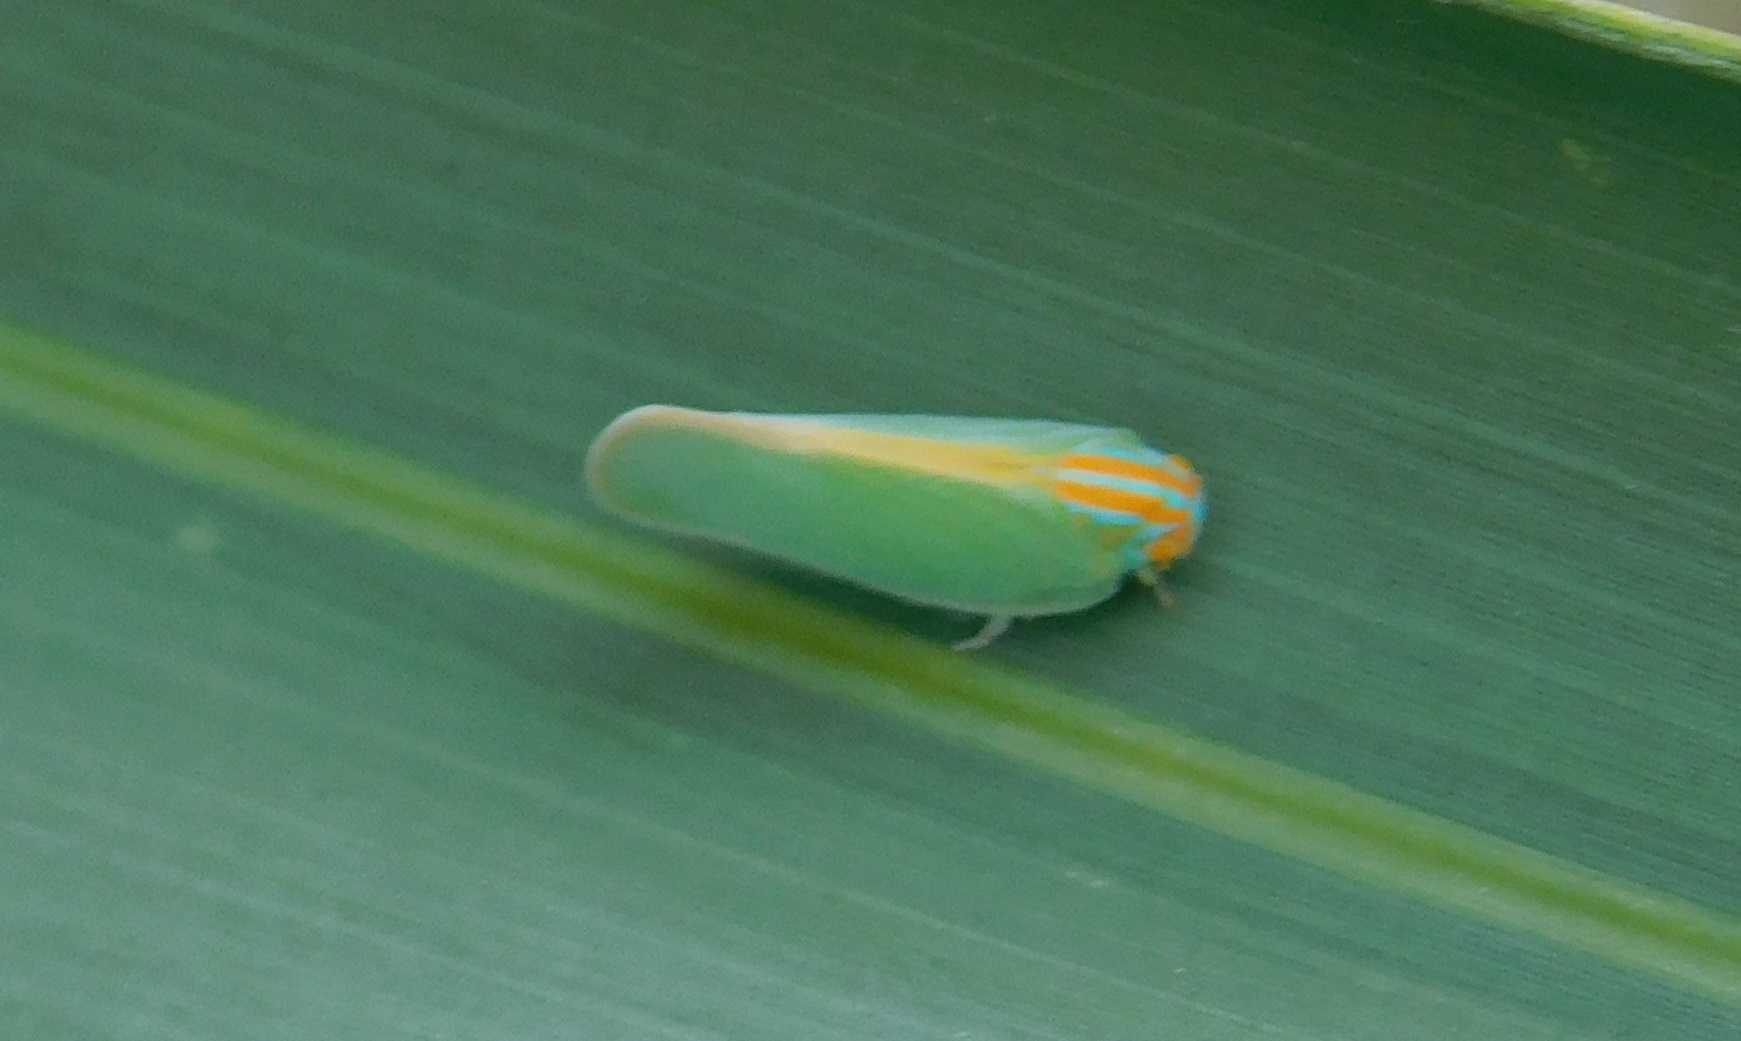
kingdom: Animalia
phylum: Arthropoda
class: Insecta
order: Hemiptera
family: Flatidae
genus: Ormenaria
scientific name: Ormenaria rufifascia
